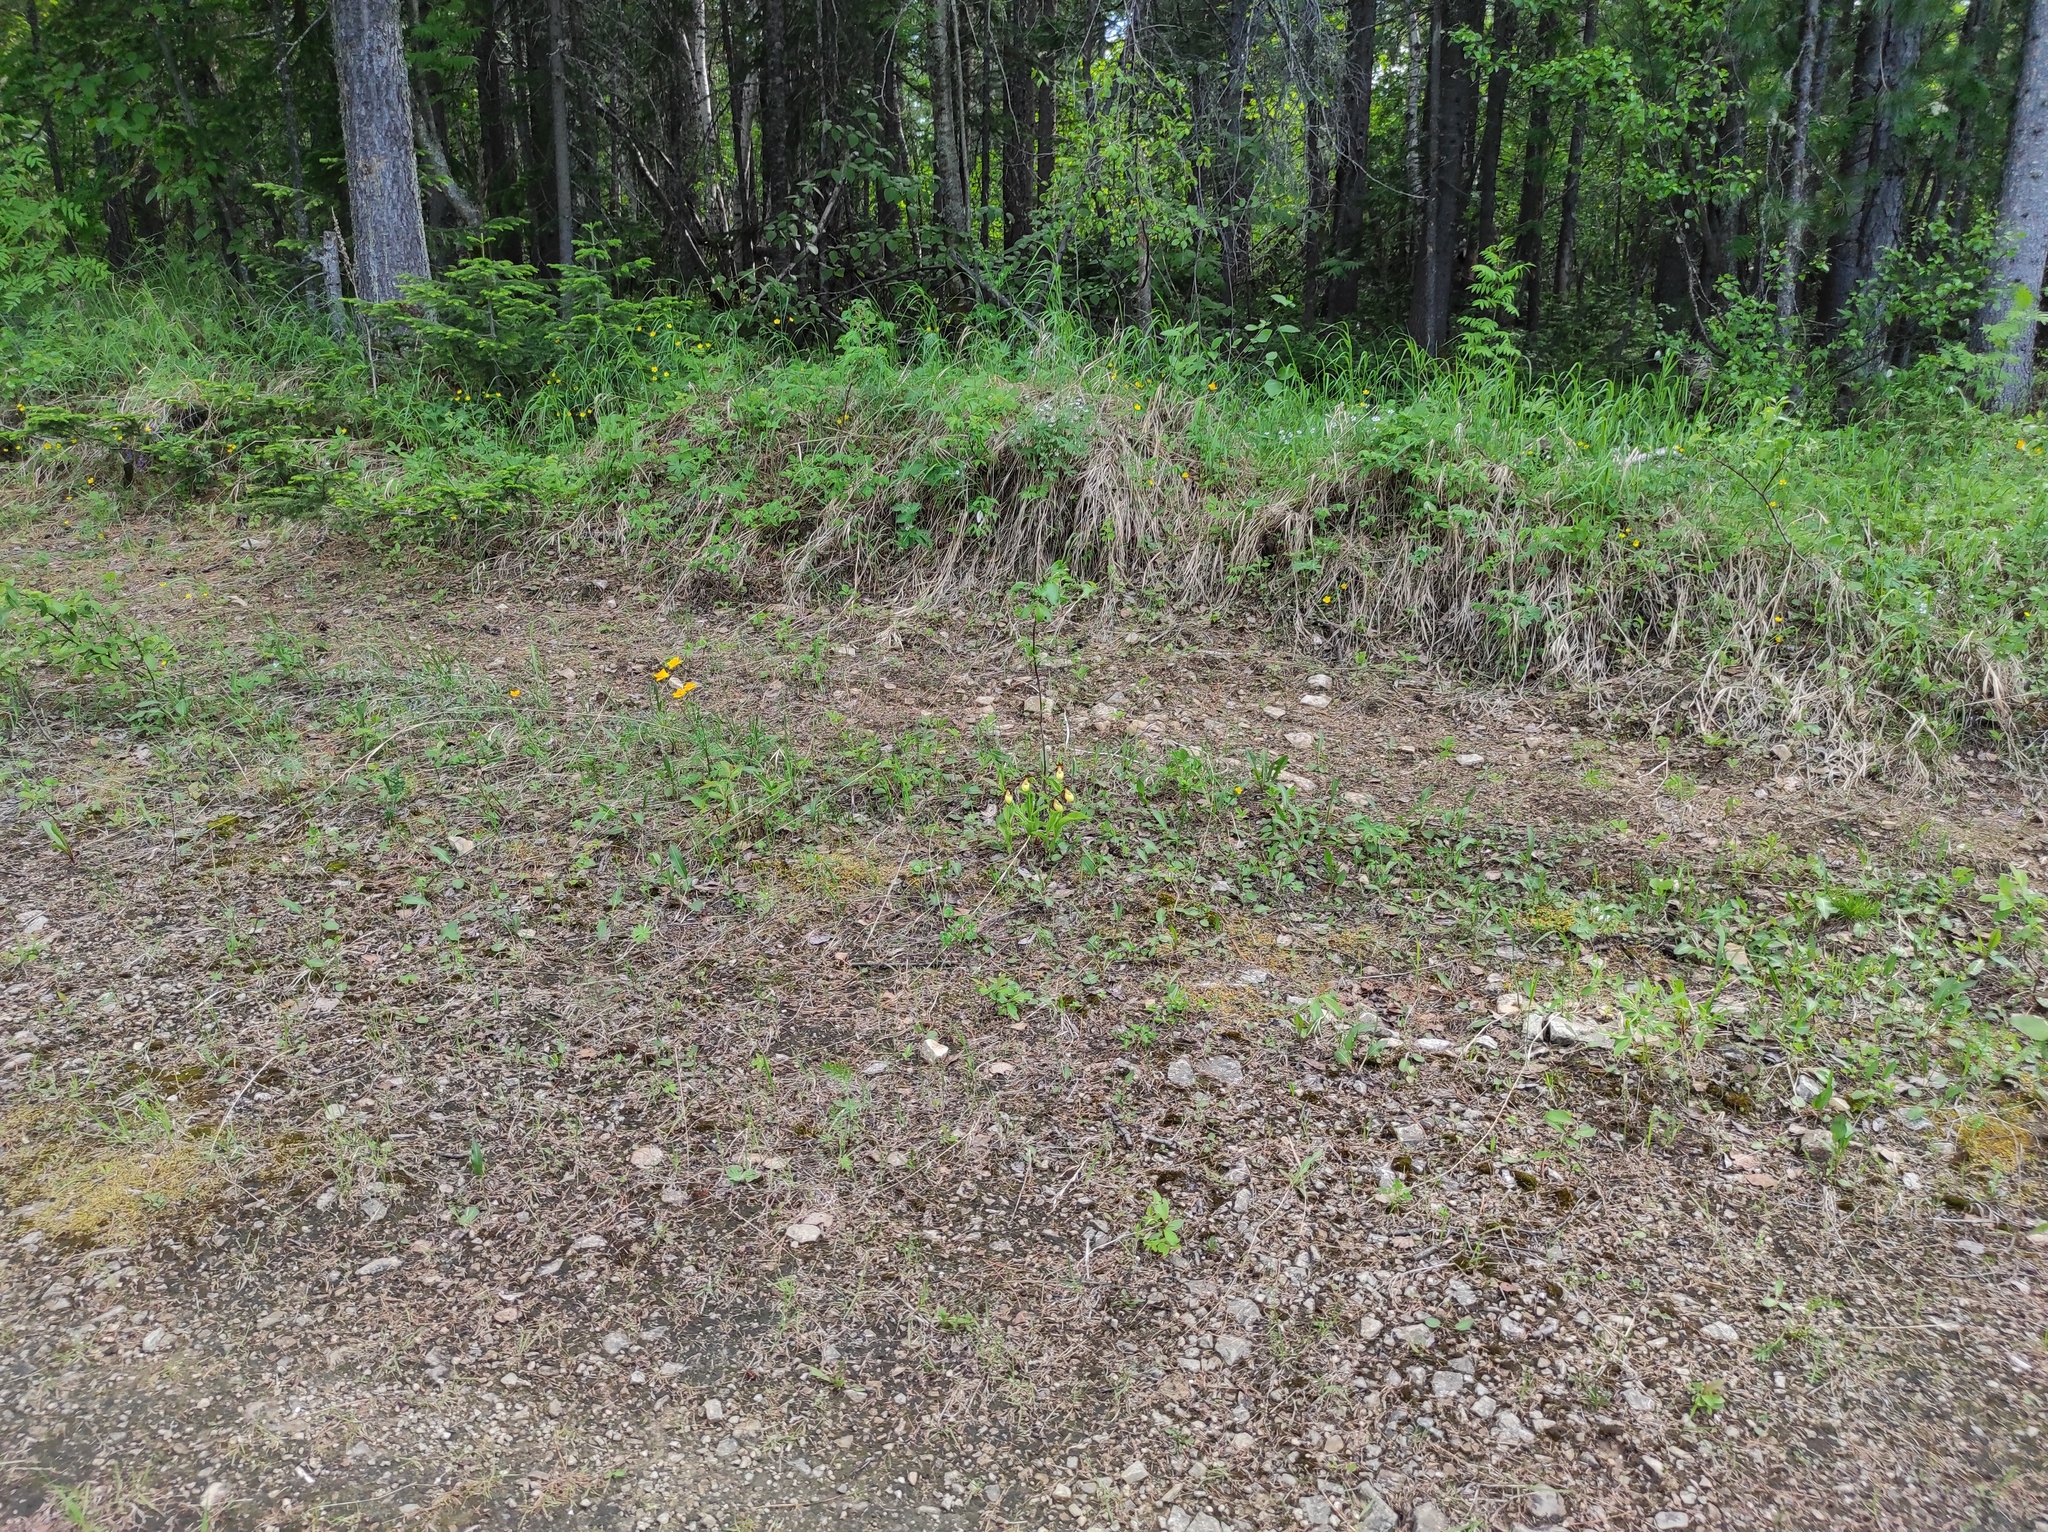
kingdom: Plantae
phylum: Tracheophyta
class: Liliopsida
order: Asparagales
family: Orchidaceae
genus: Cypripedium
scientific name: Cypripedium calceolus
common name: Lady's-slipper
